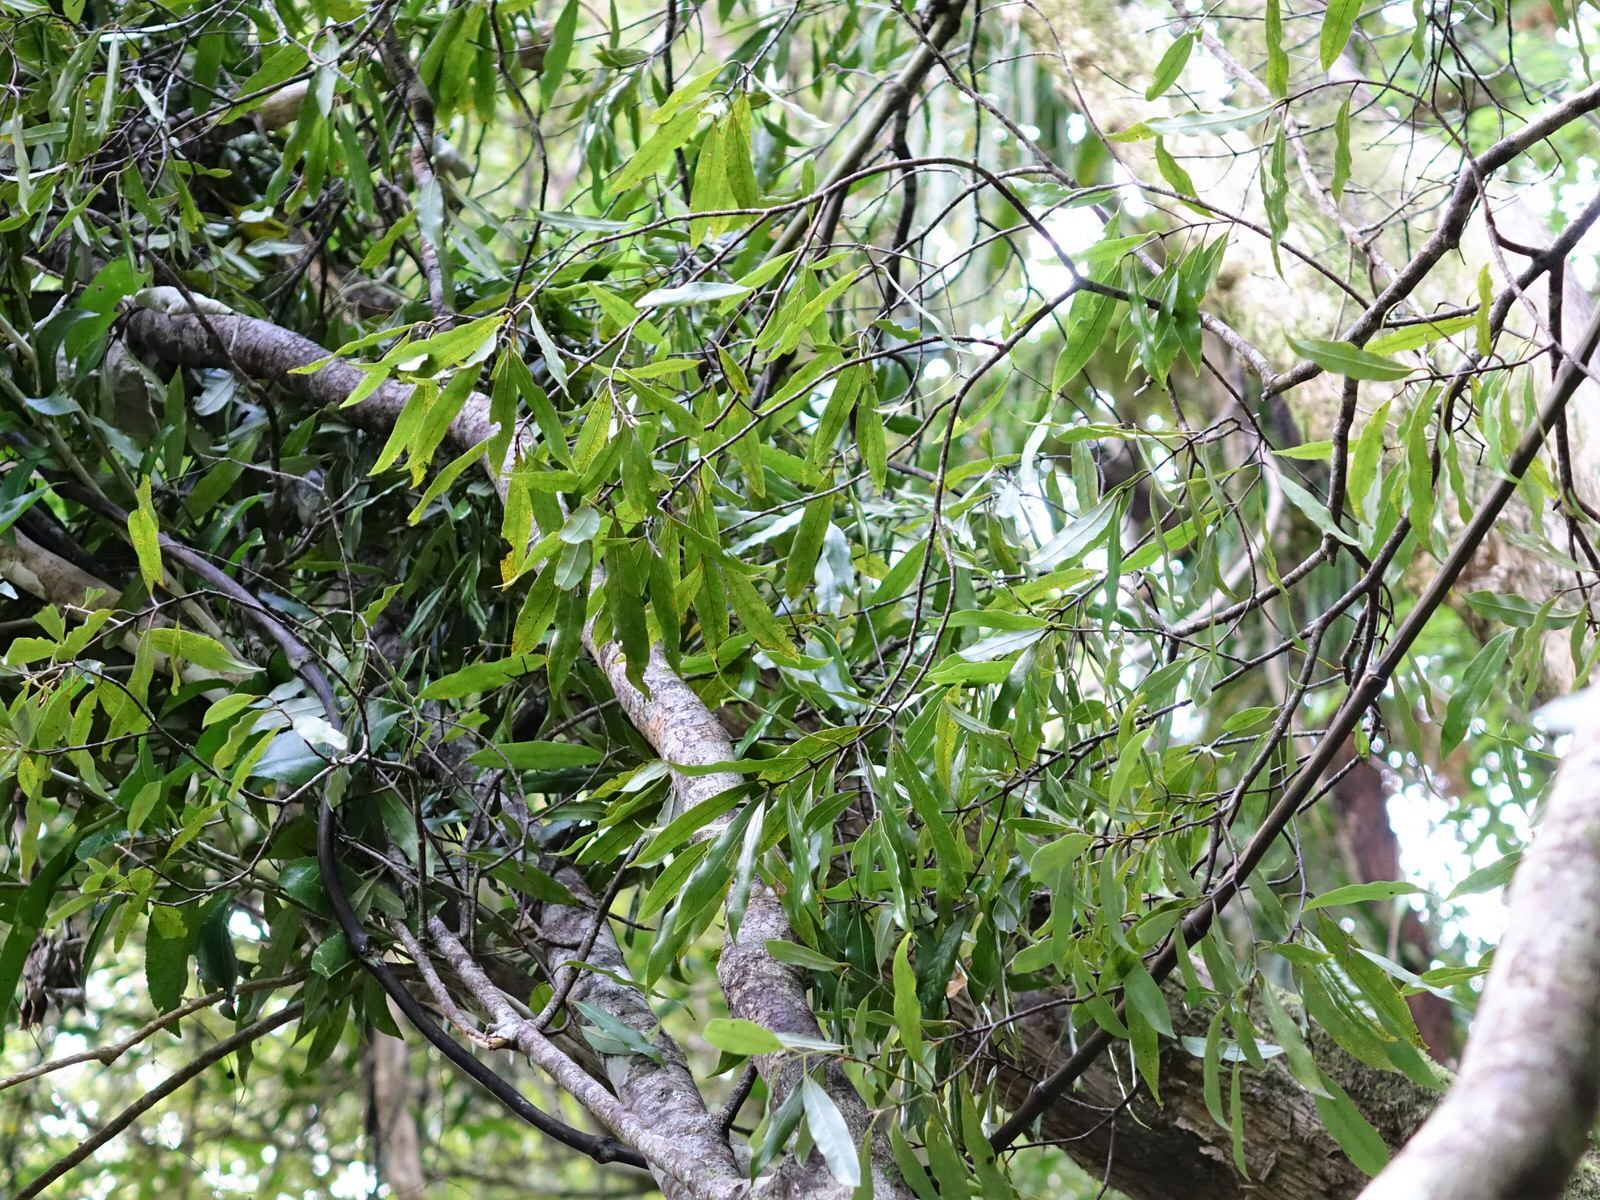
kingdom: Plantae
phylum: Tracheophyta
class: Magnoliopsida
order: Laurales
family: Lauraceae
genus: Beilschmiedia
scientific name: Beilschmiedia tawa
